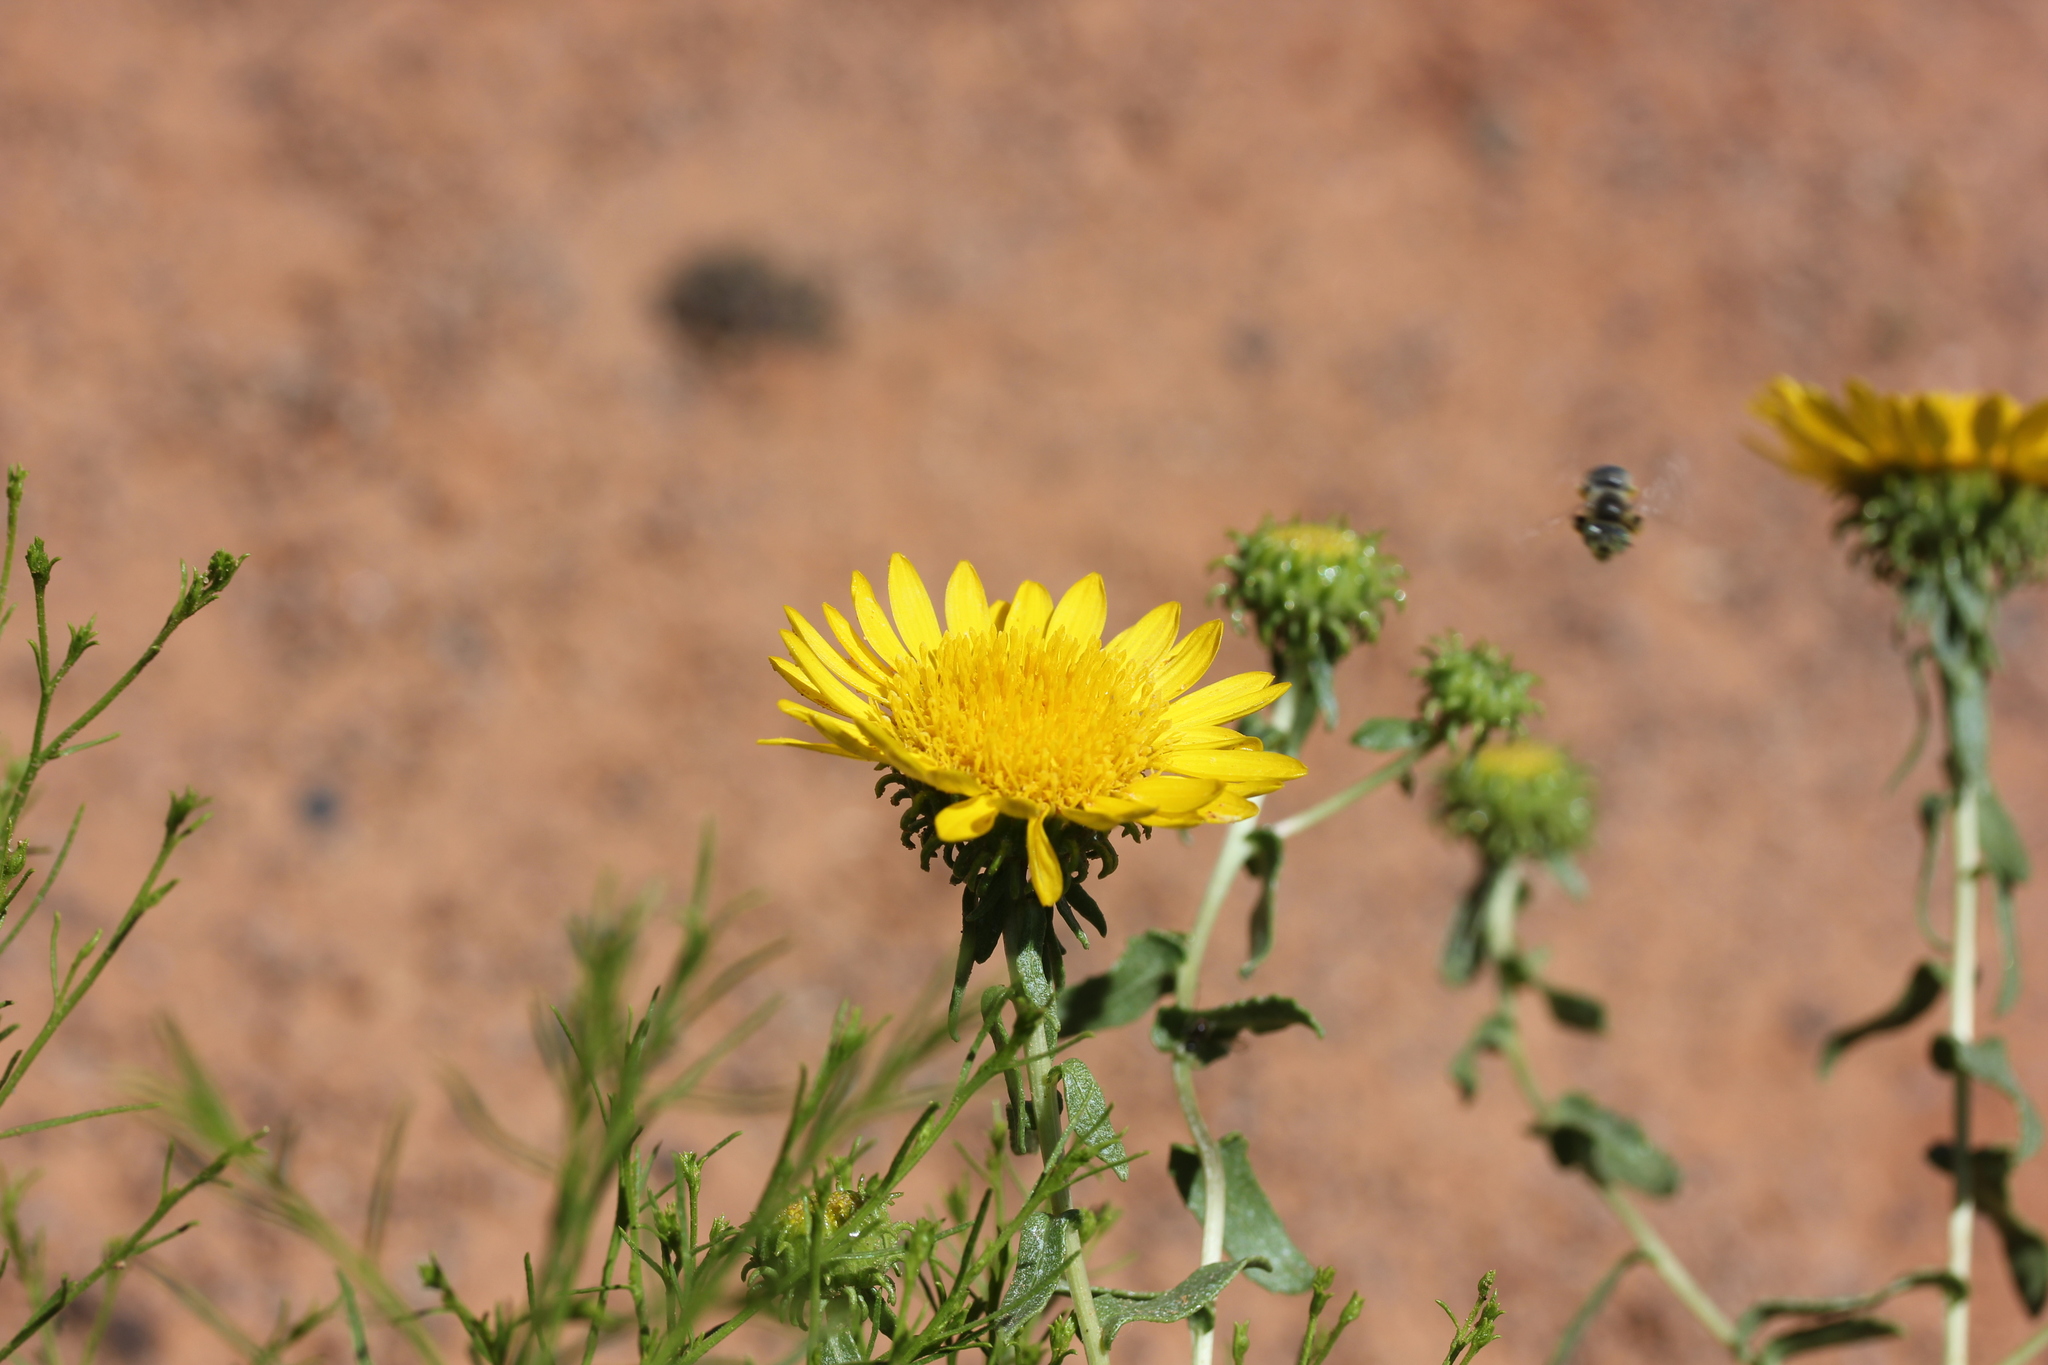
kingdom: Plantae
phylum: Tracheophyta
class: Magnoliopsida
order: Asterales
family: Asteraceae
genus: Grindelia
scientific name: Grindelia squarrosa
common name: Curly-cup gumweed
